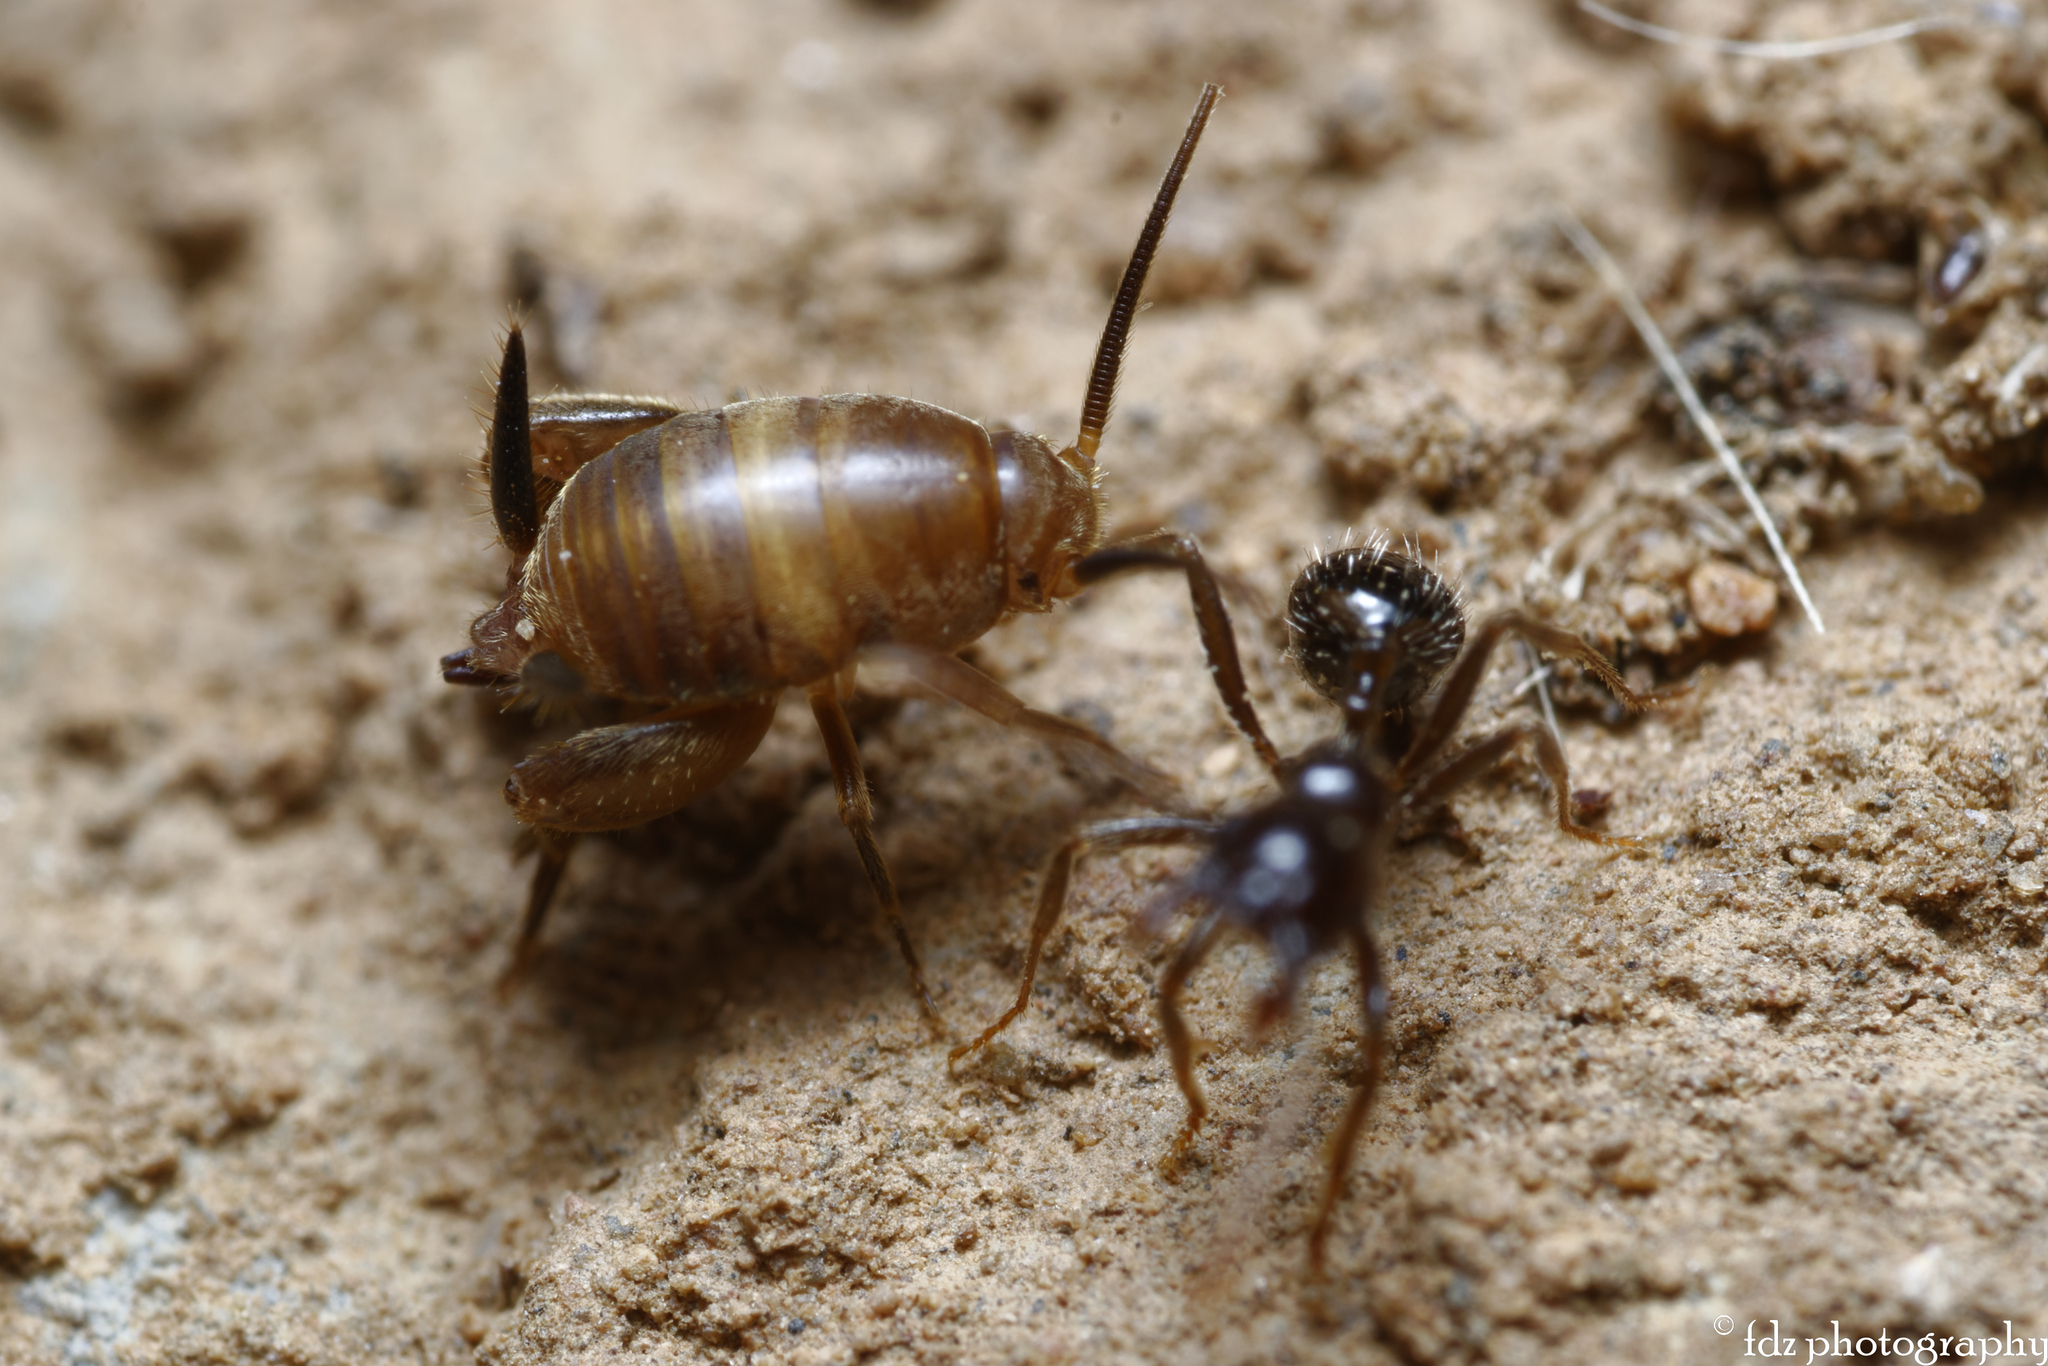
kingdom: Animalia
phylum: Arthropoda
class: Insecta
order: Orthoptera
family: Myrmecophilidae
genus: Myrmecophilus
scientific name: Myrmecophilus ochraceus
